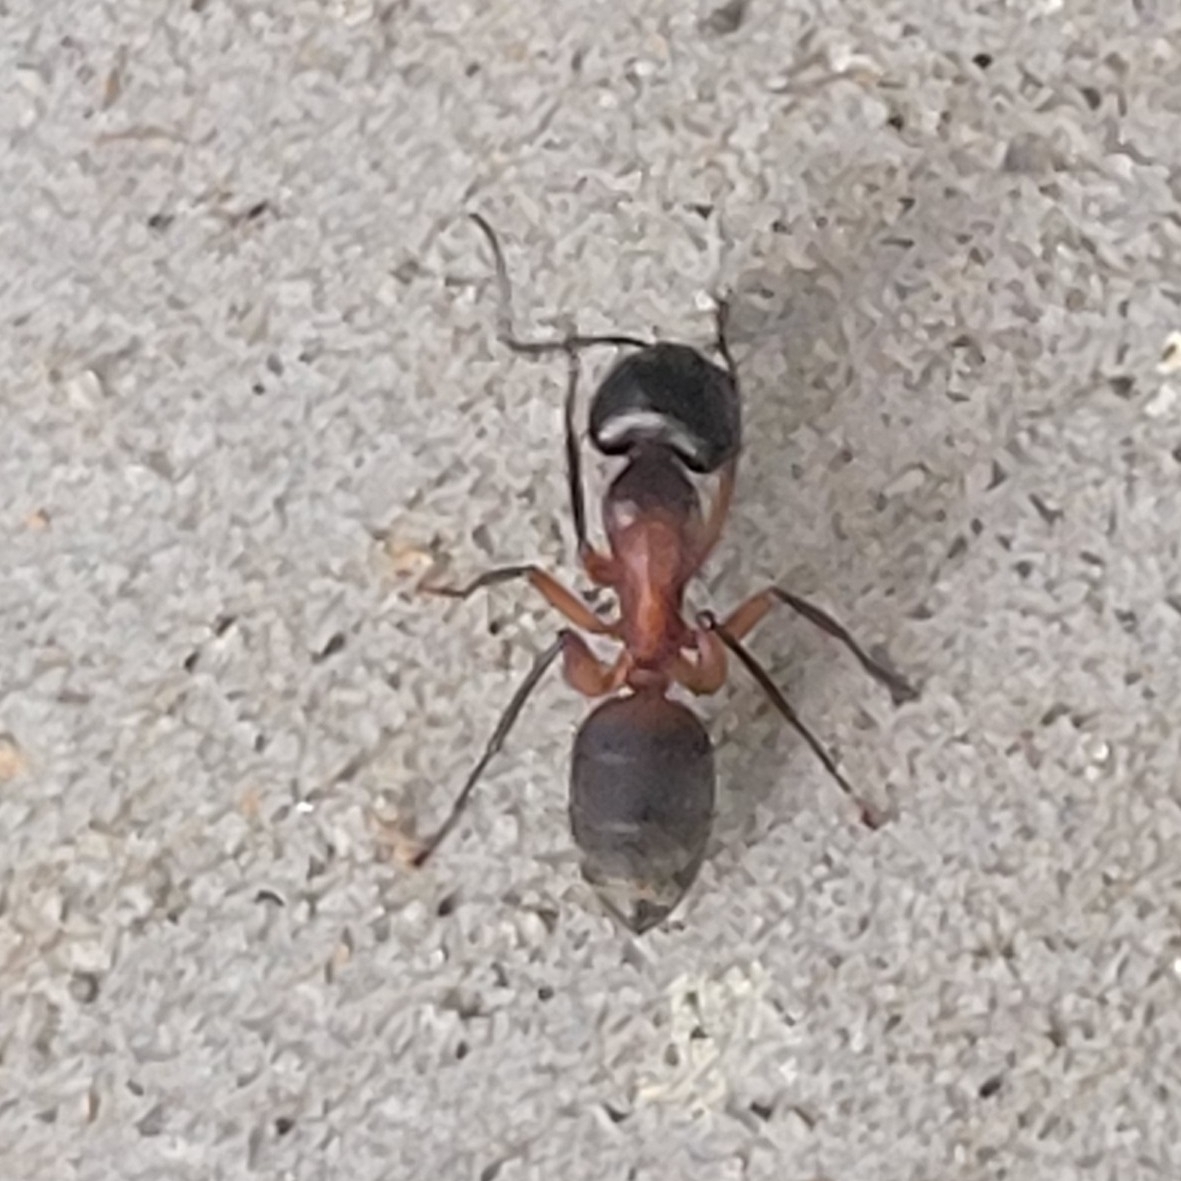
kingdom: Animalia
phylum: Arthropoda
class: Insecta
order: Hymenoptera
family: Formicidae
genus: Camponotus
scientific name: Camponotus chromaiodes
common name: Red carpenter ant
